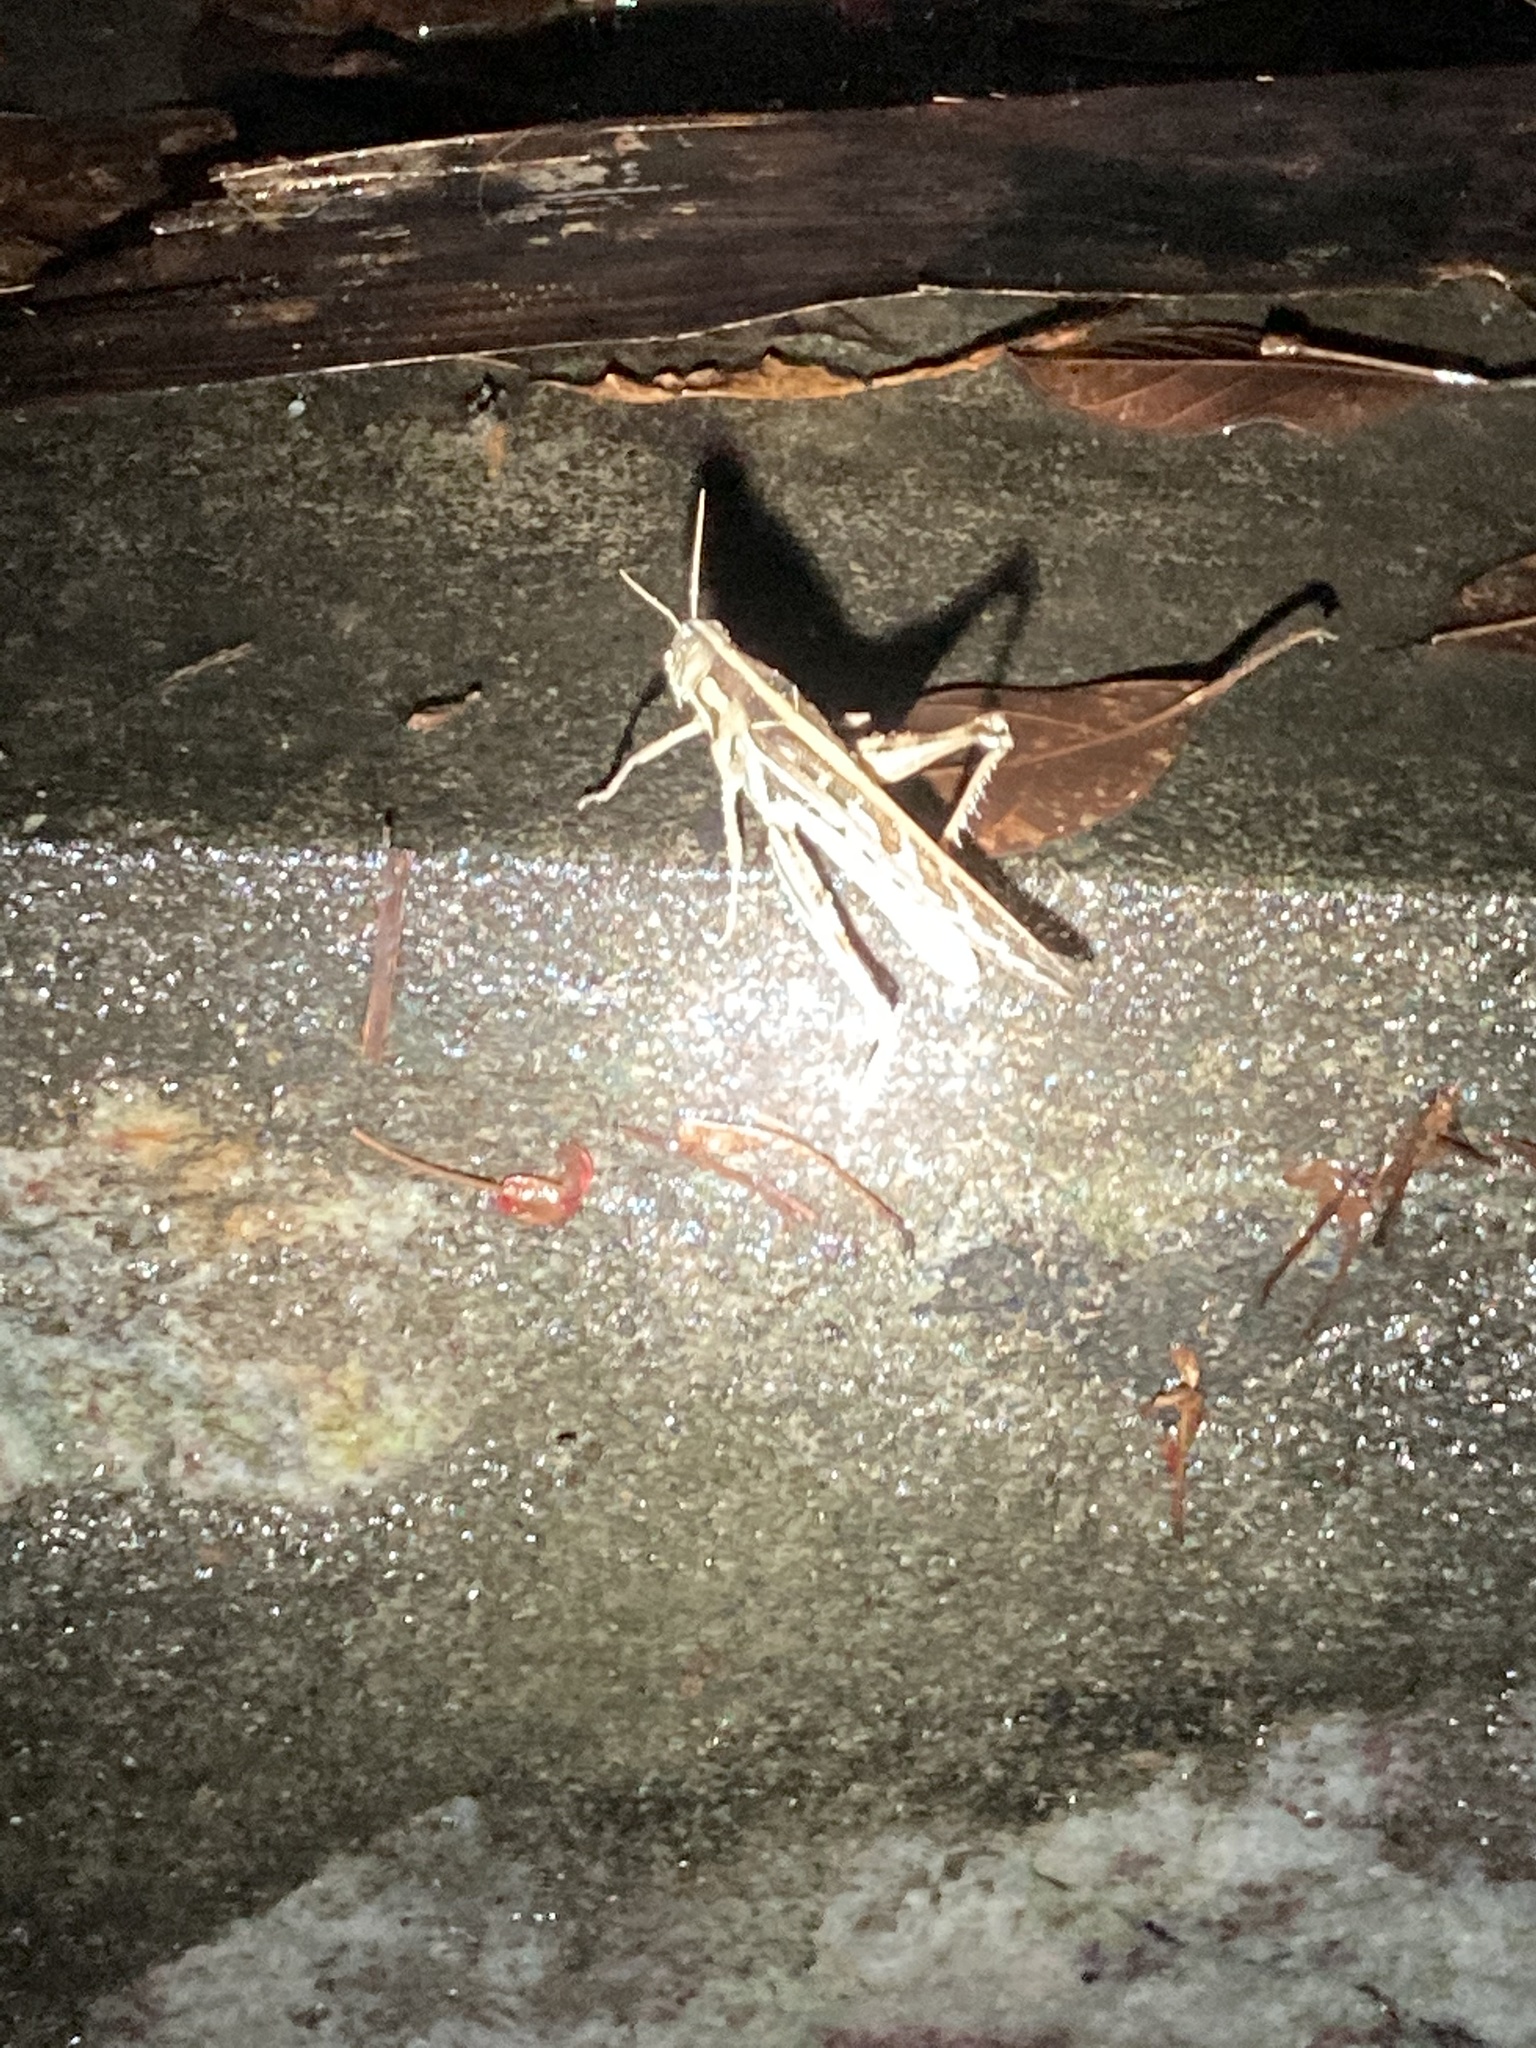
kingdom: Animalia
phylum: Arthropoda
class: Insecta
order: Orthoptera
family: Acrididae
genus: Cyrtacanthacris
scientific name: Cyrtacanthacris tatarica
